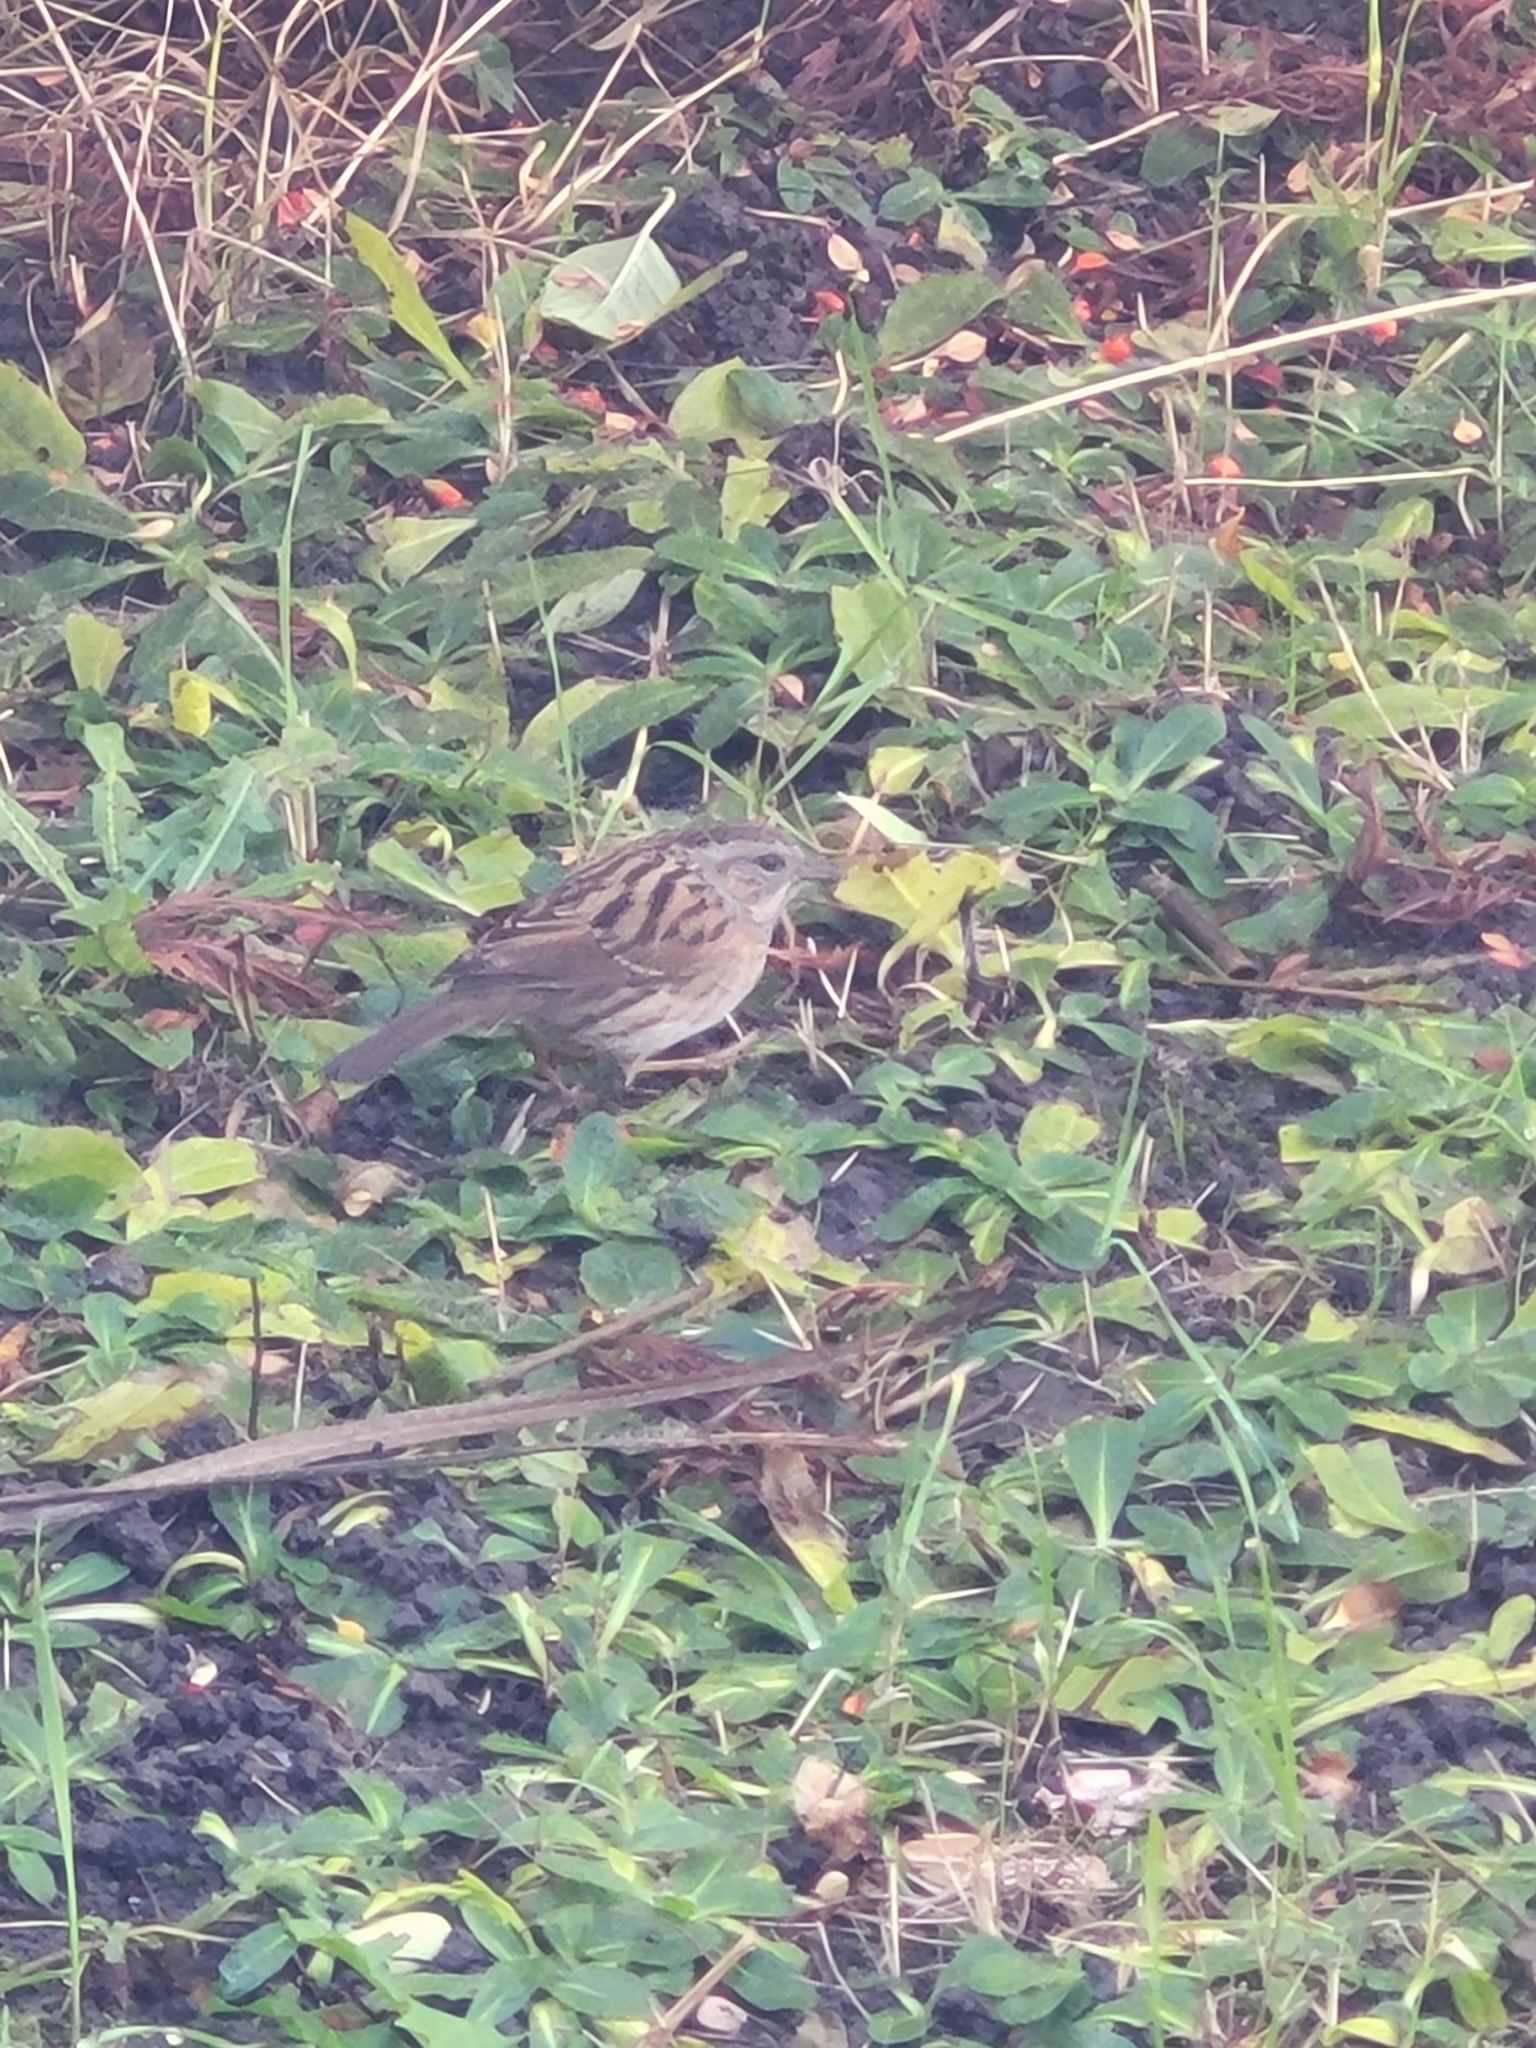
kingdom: Animalia
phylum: Chordata
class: Aves
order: Passeriformes
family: Prunellidae
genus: Prunella
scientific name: Prunella modularis
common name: Dunnock
